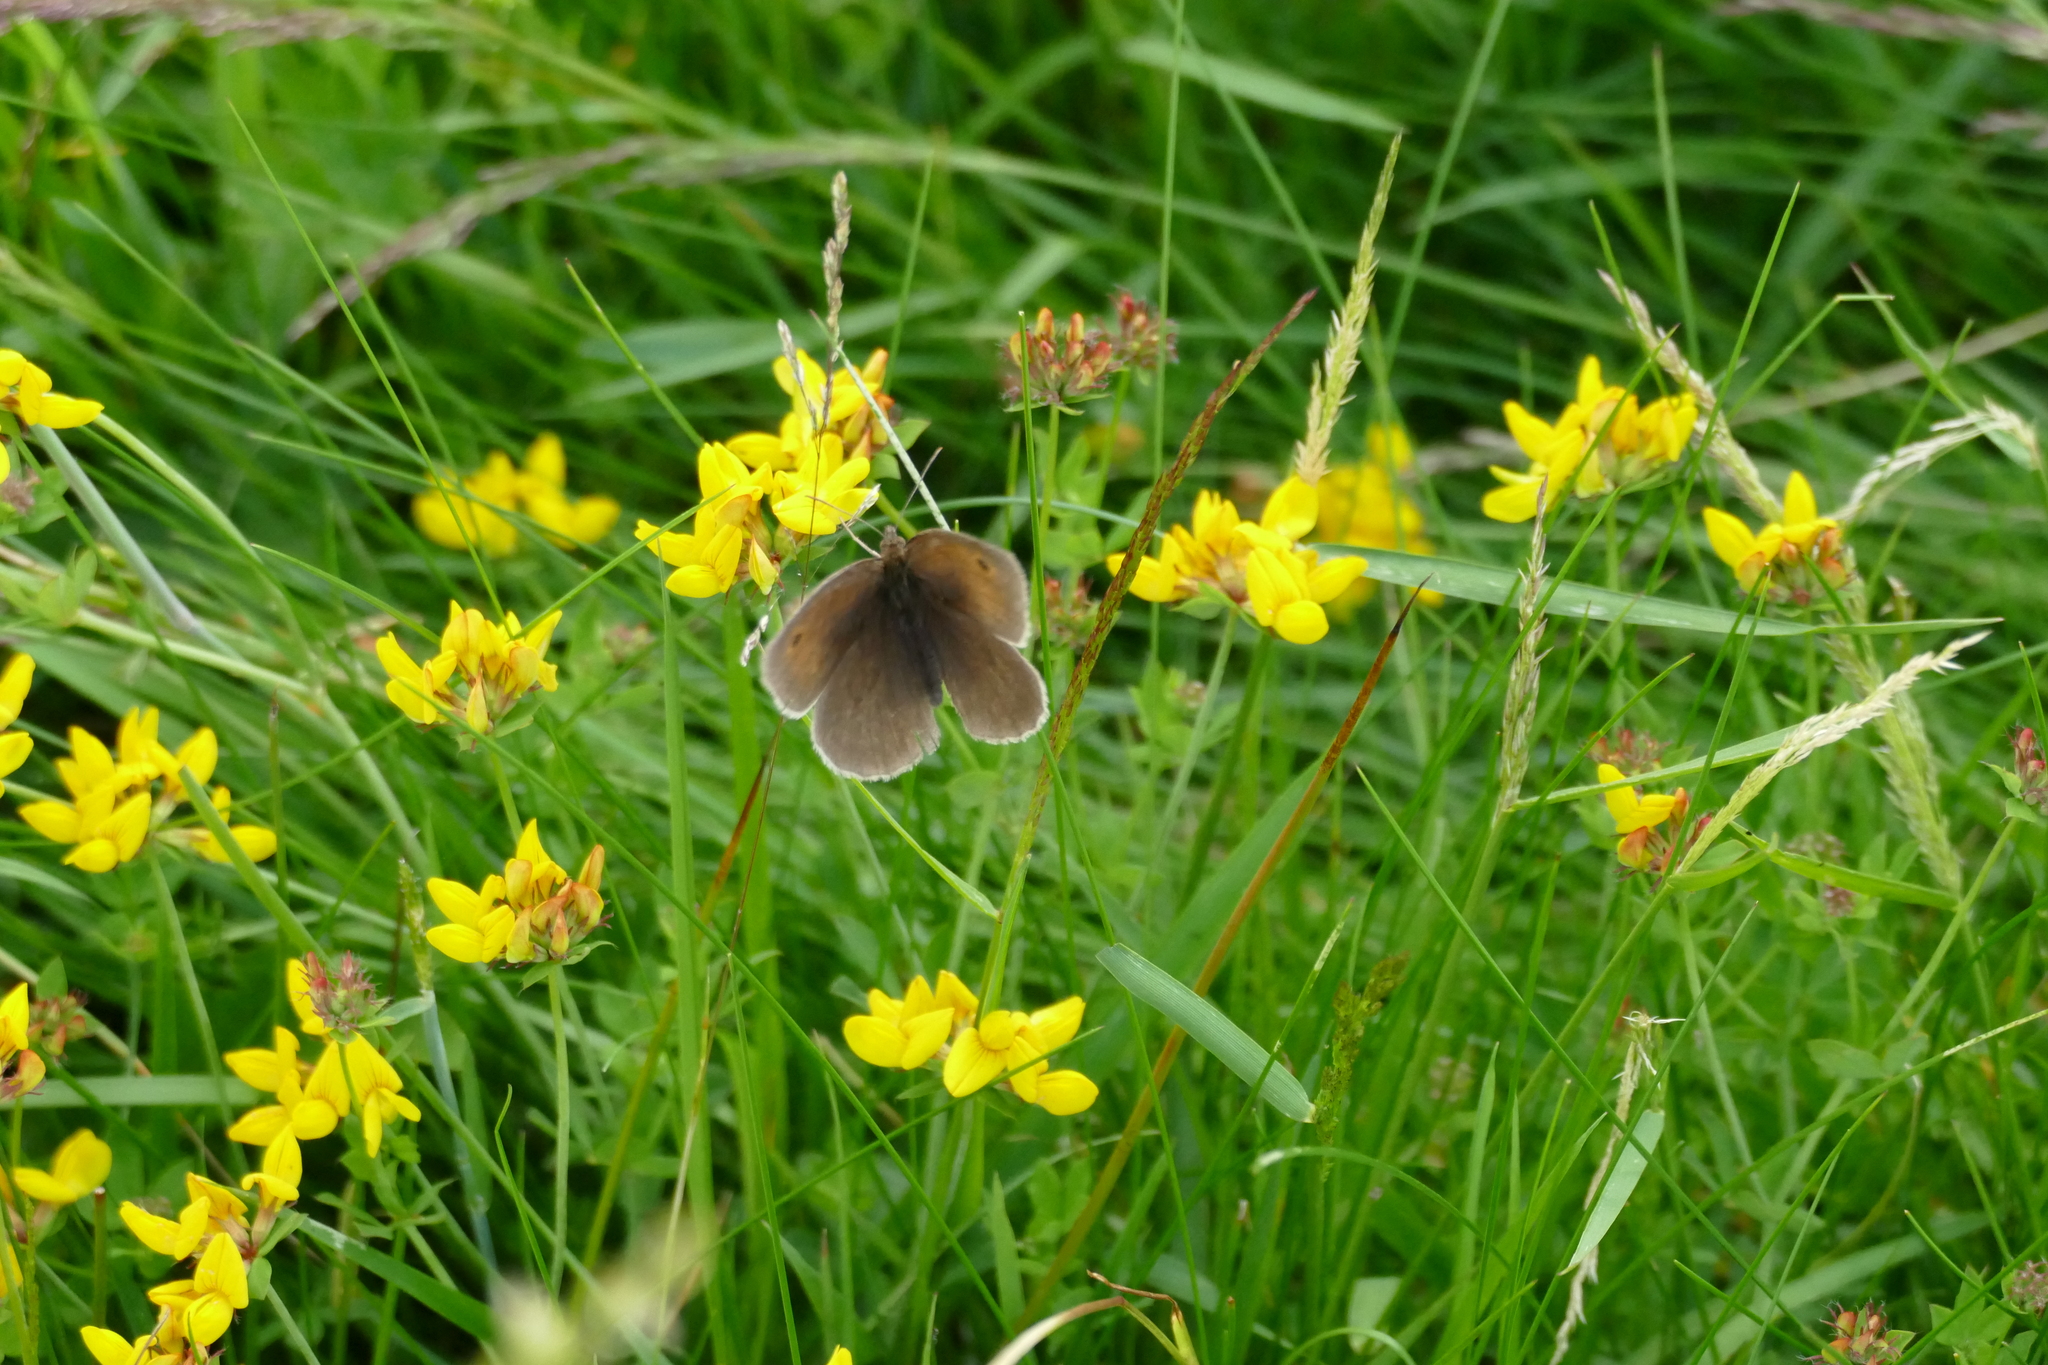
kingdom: Animalia
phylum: Arthropoda
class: Insecta
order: Lepidoptera
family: Nymphalidae
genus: Maniola
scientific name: Maniola jurtina
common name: Meadow brown
